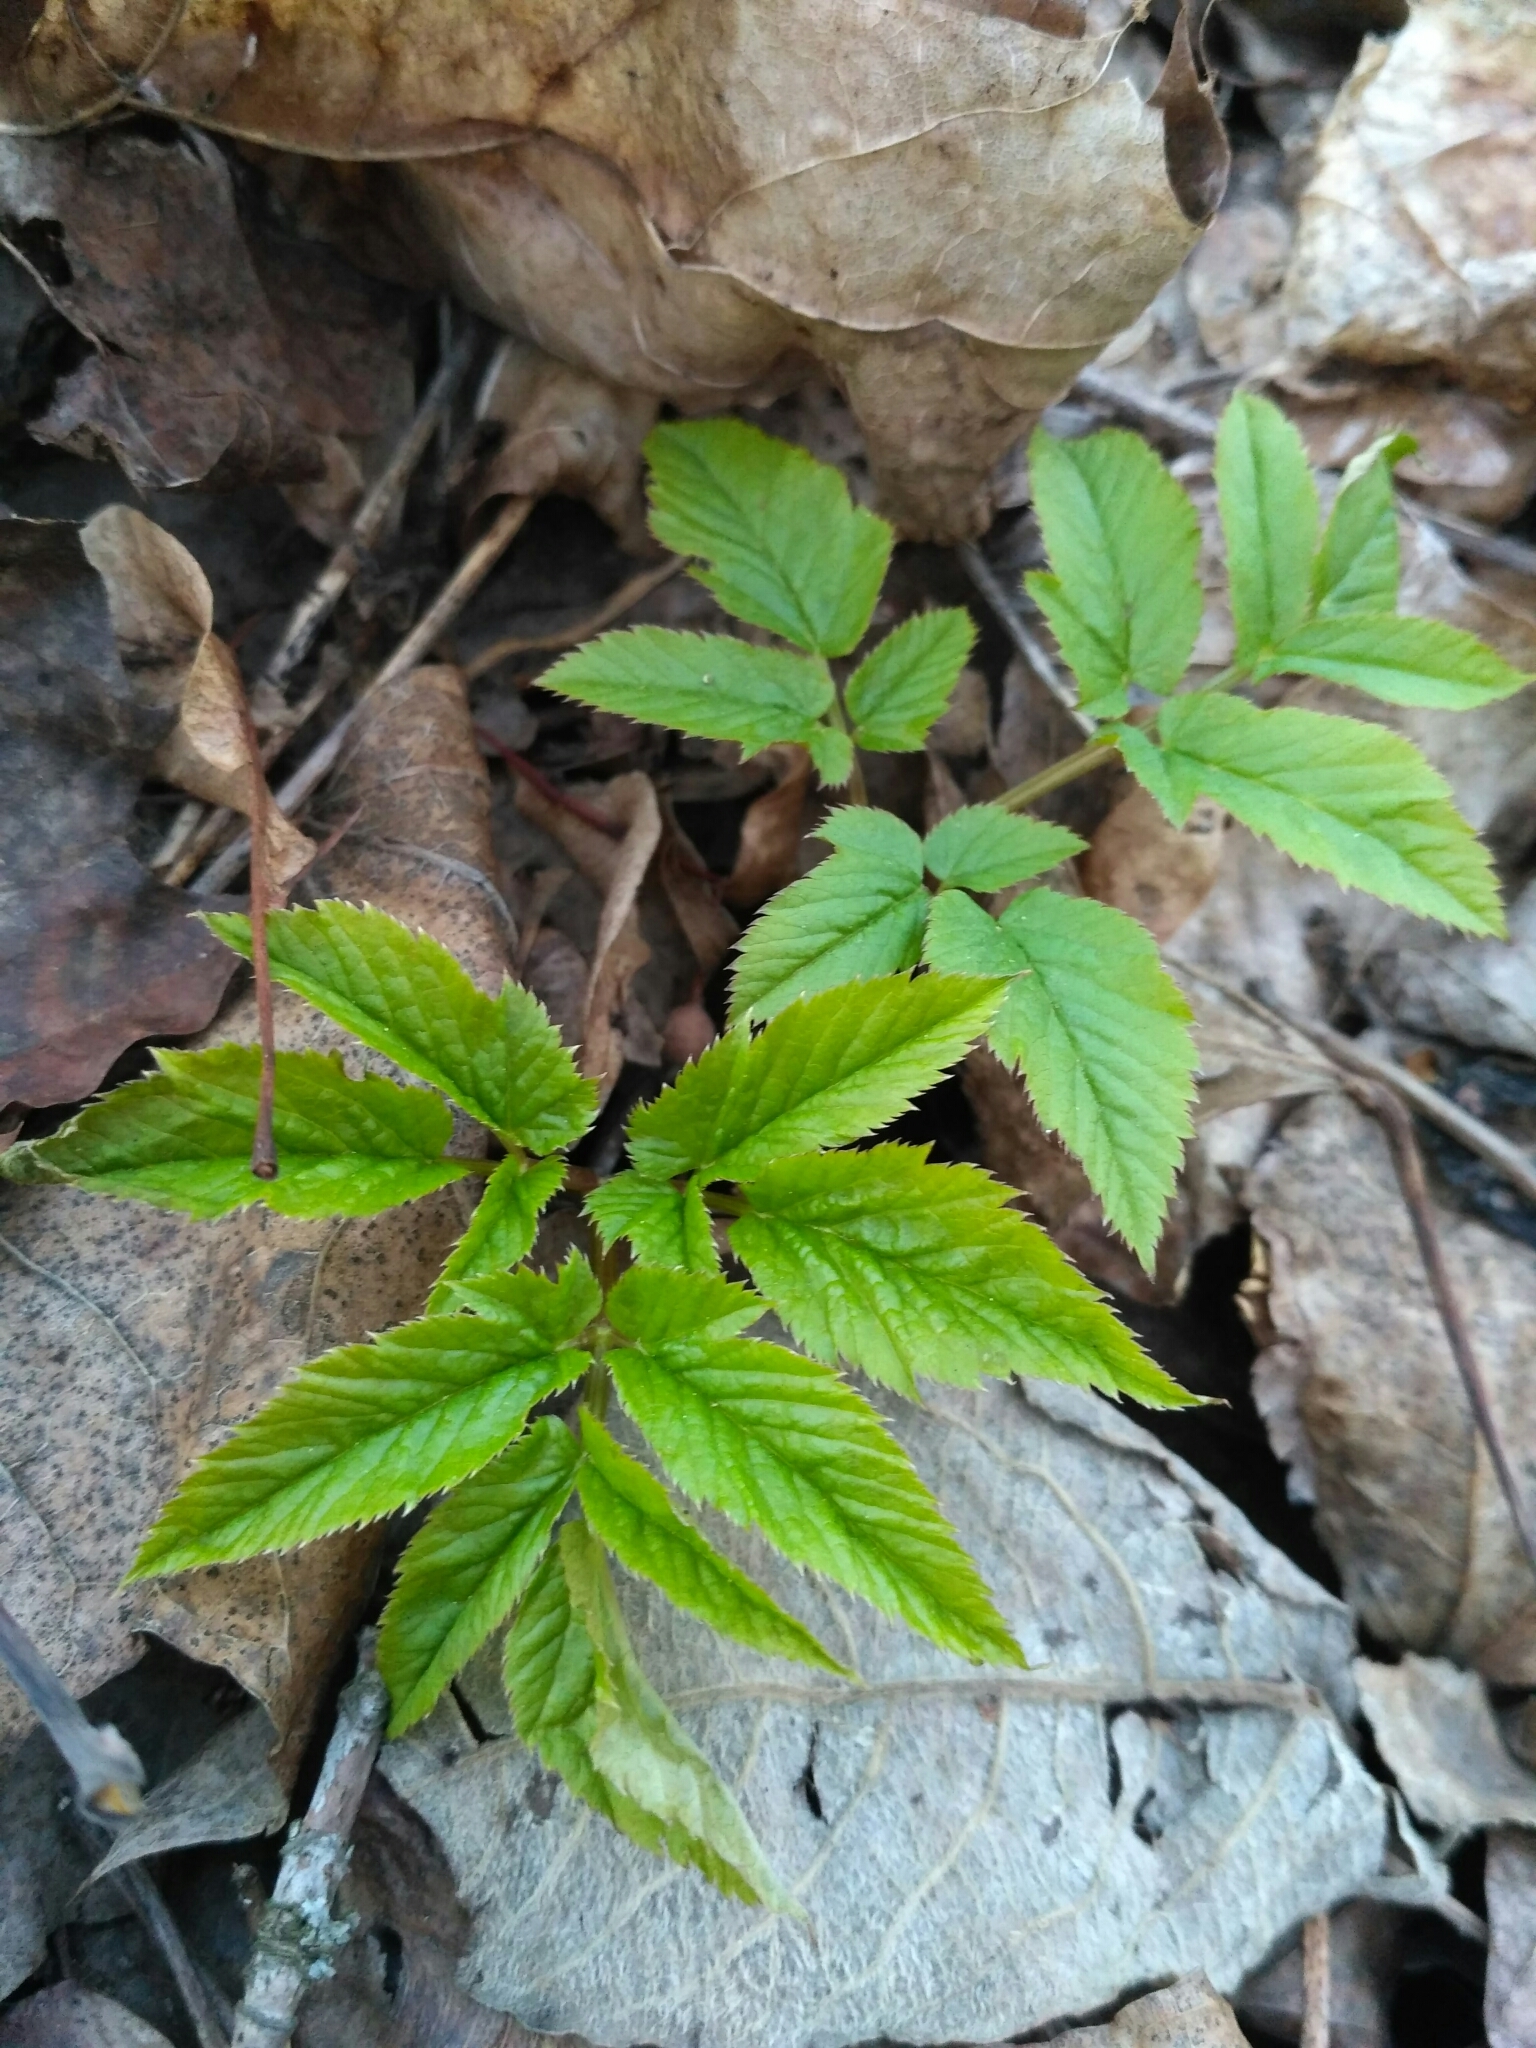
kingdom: Plantae
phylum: Tracheophyta
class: Magnoliopsida
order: Apiales
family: Apiaceae
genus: Aegopodium
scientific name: Aegopodium podagraria
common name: Ground-elder
